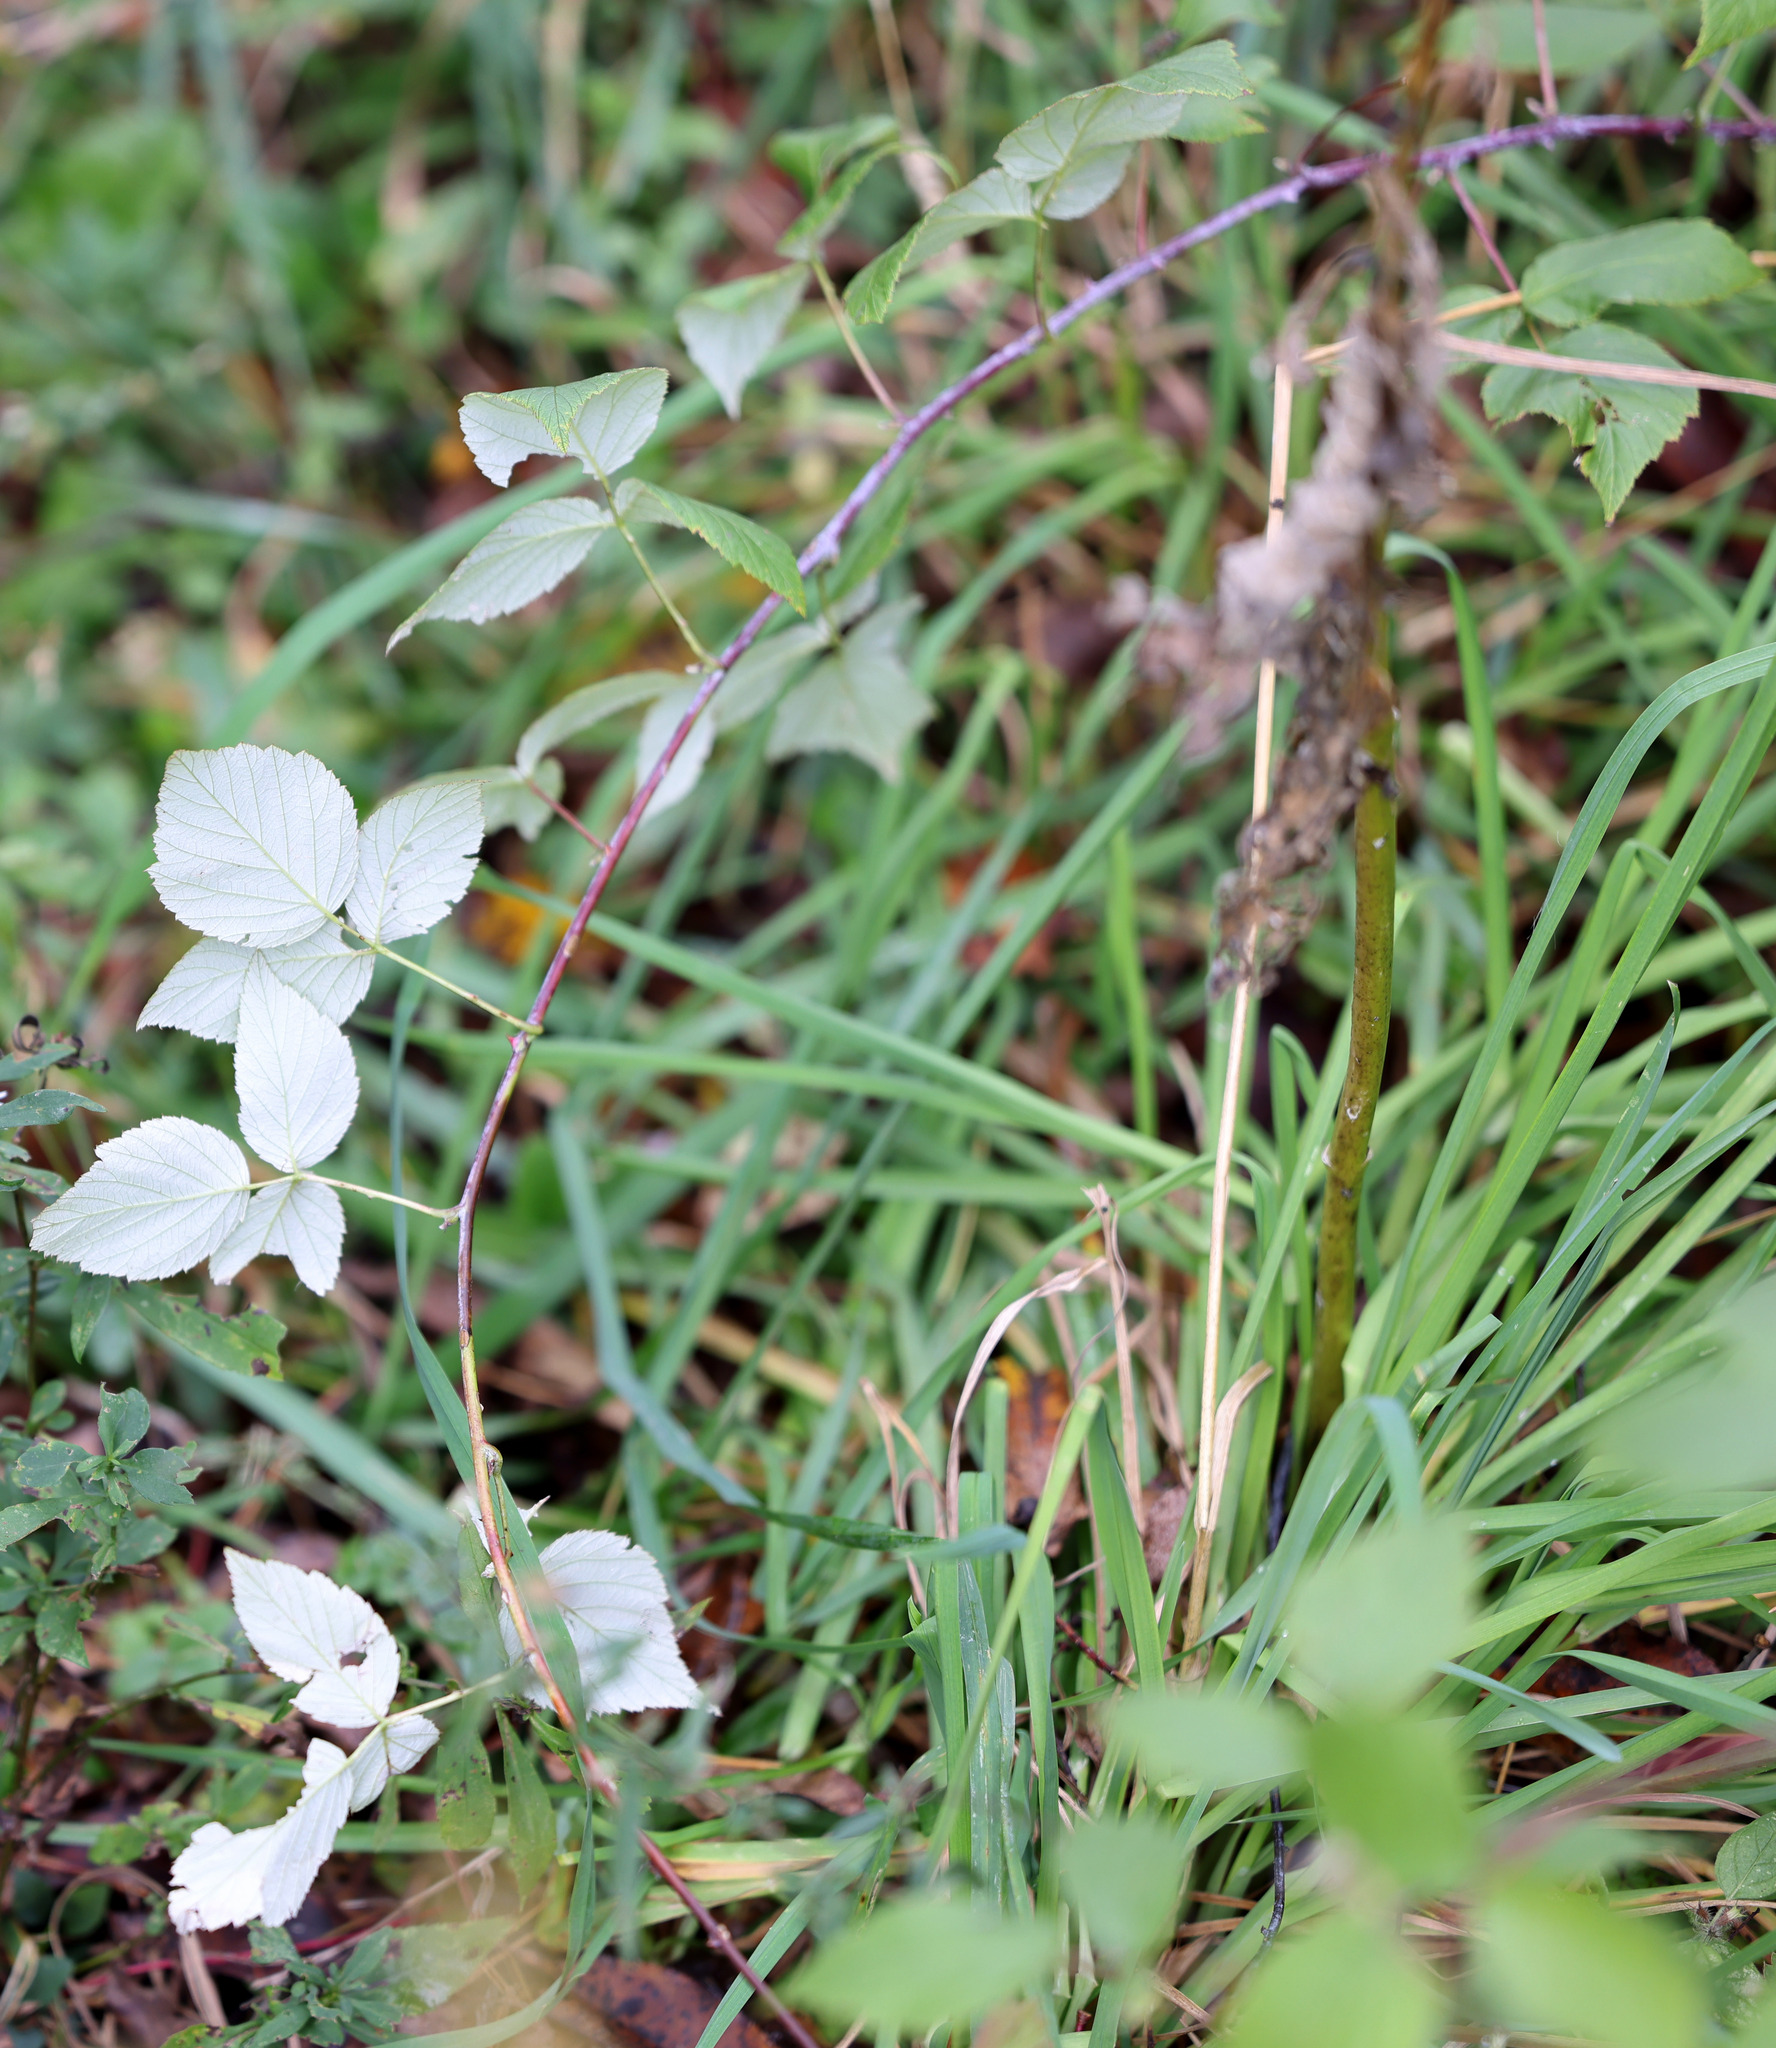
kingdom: Plantae
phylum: Tracheophyta
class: Magnoliopsida
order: Rosales
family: Rosaceae
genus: Rubus
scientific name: Rubus occidentalis
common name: Black raspberry
